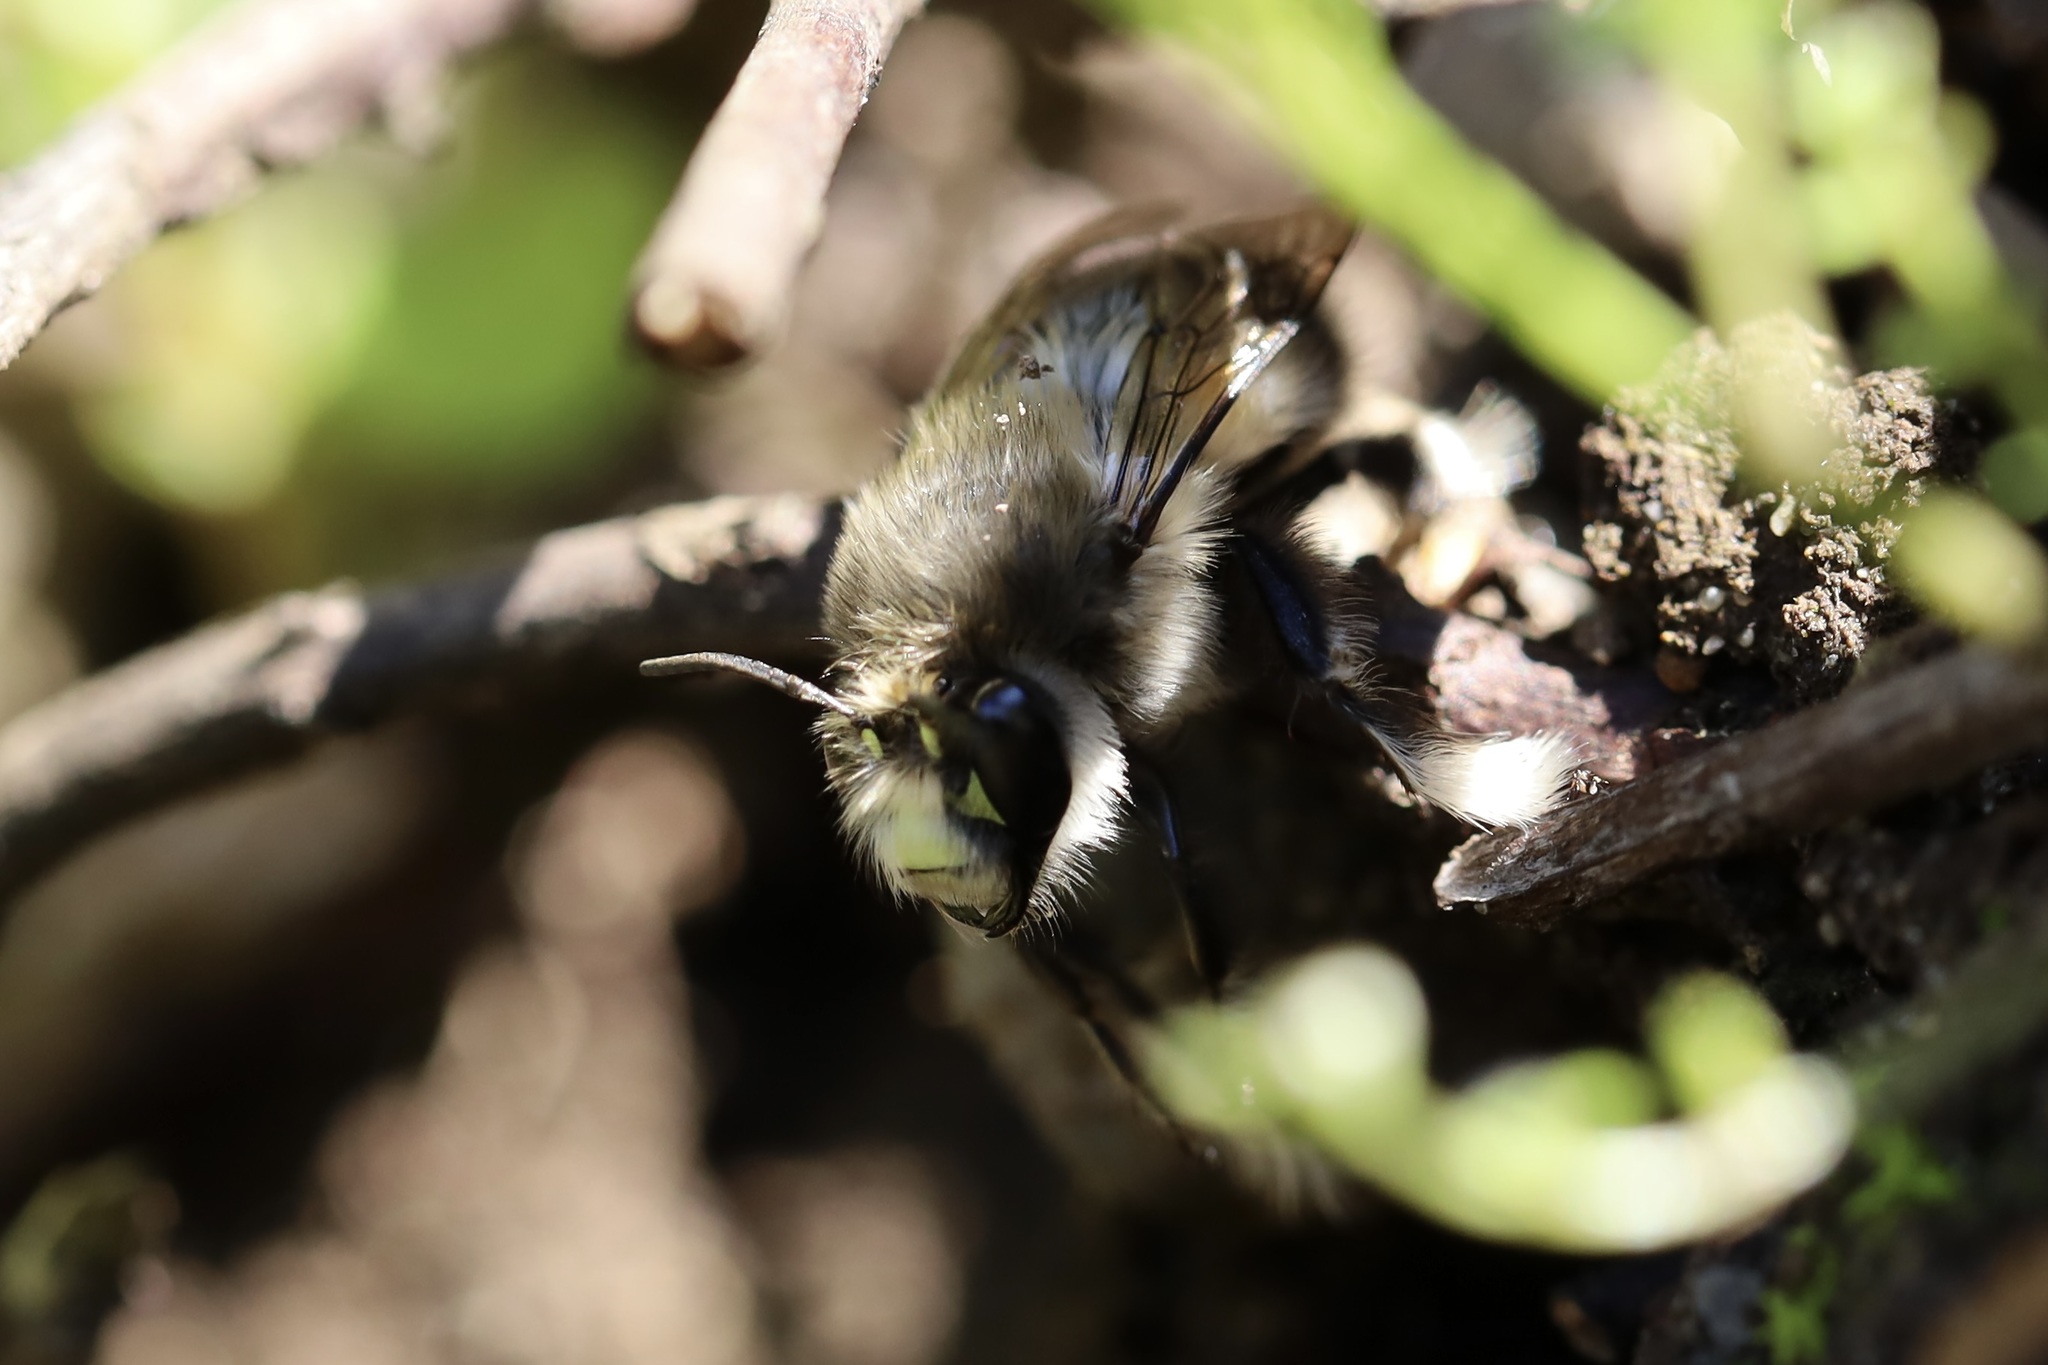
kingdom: Animalia
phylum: Arthropoda
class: Insecta
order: Hymenoptera
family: Apidae
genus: Anthophora
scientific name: Anthophora pacifica
